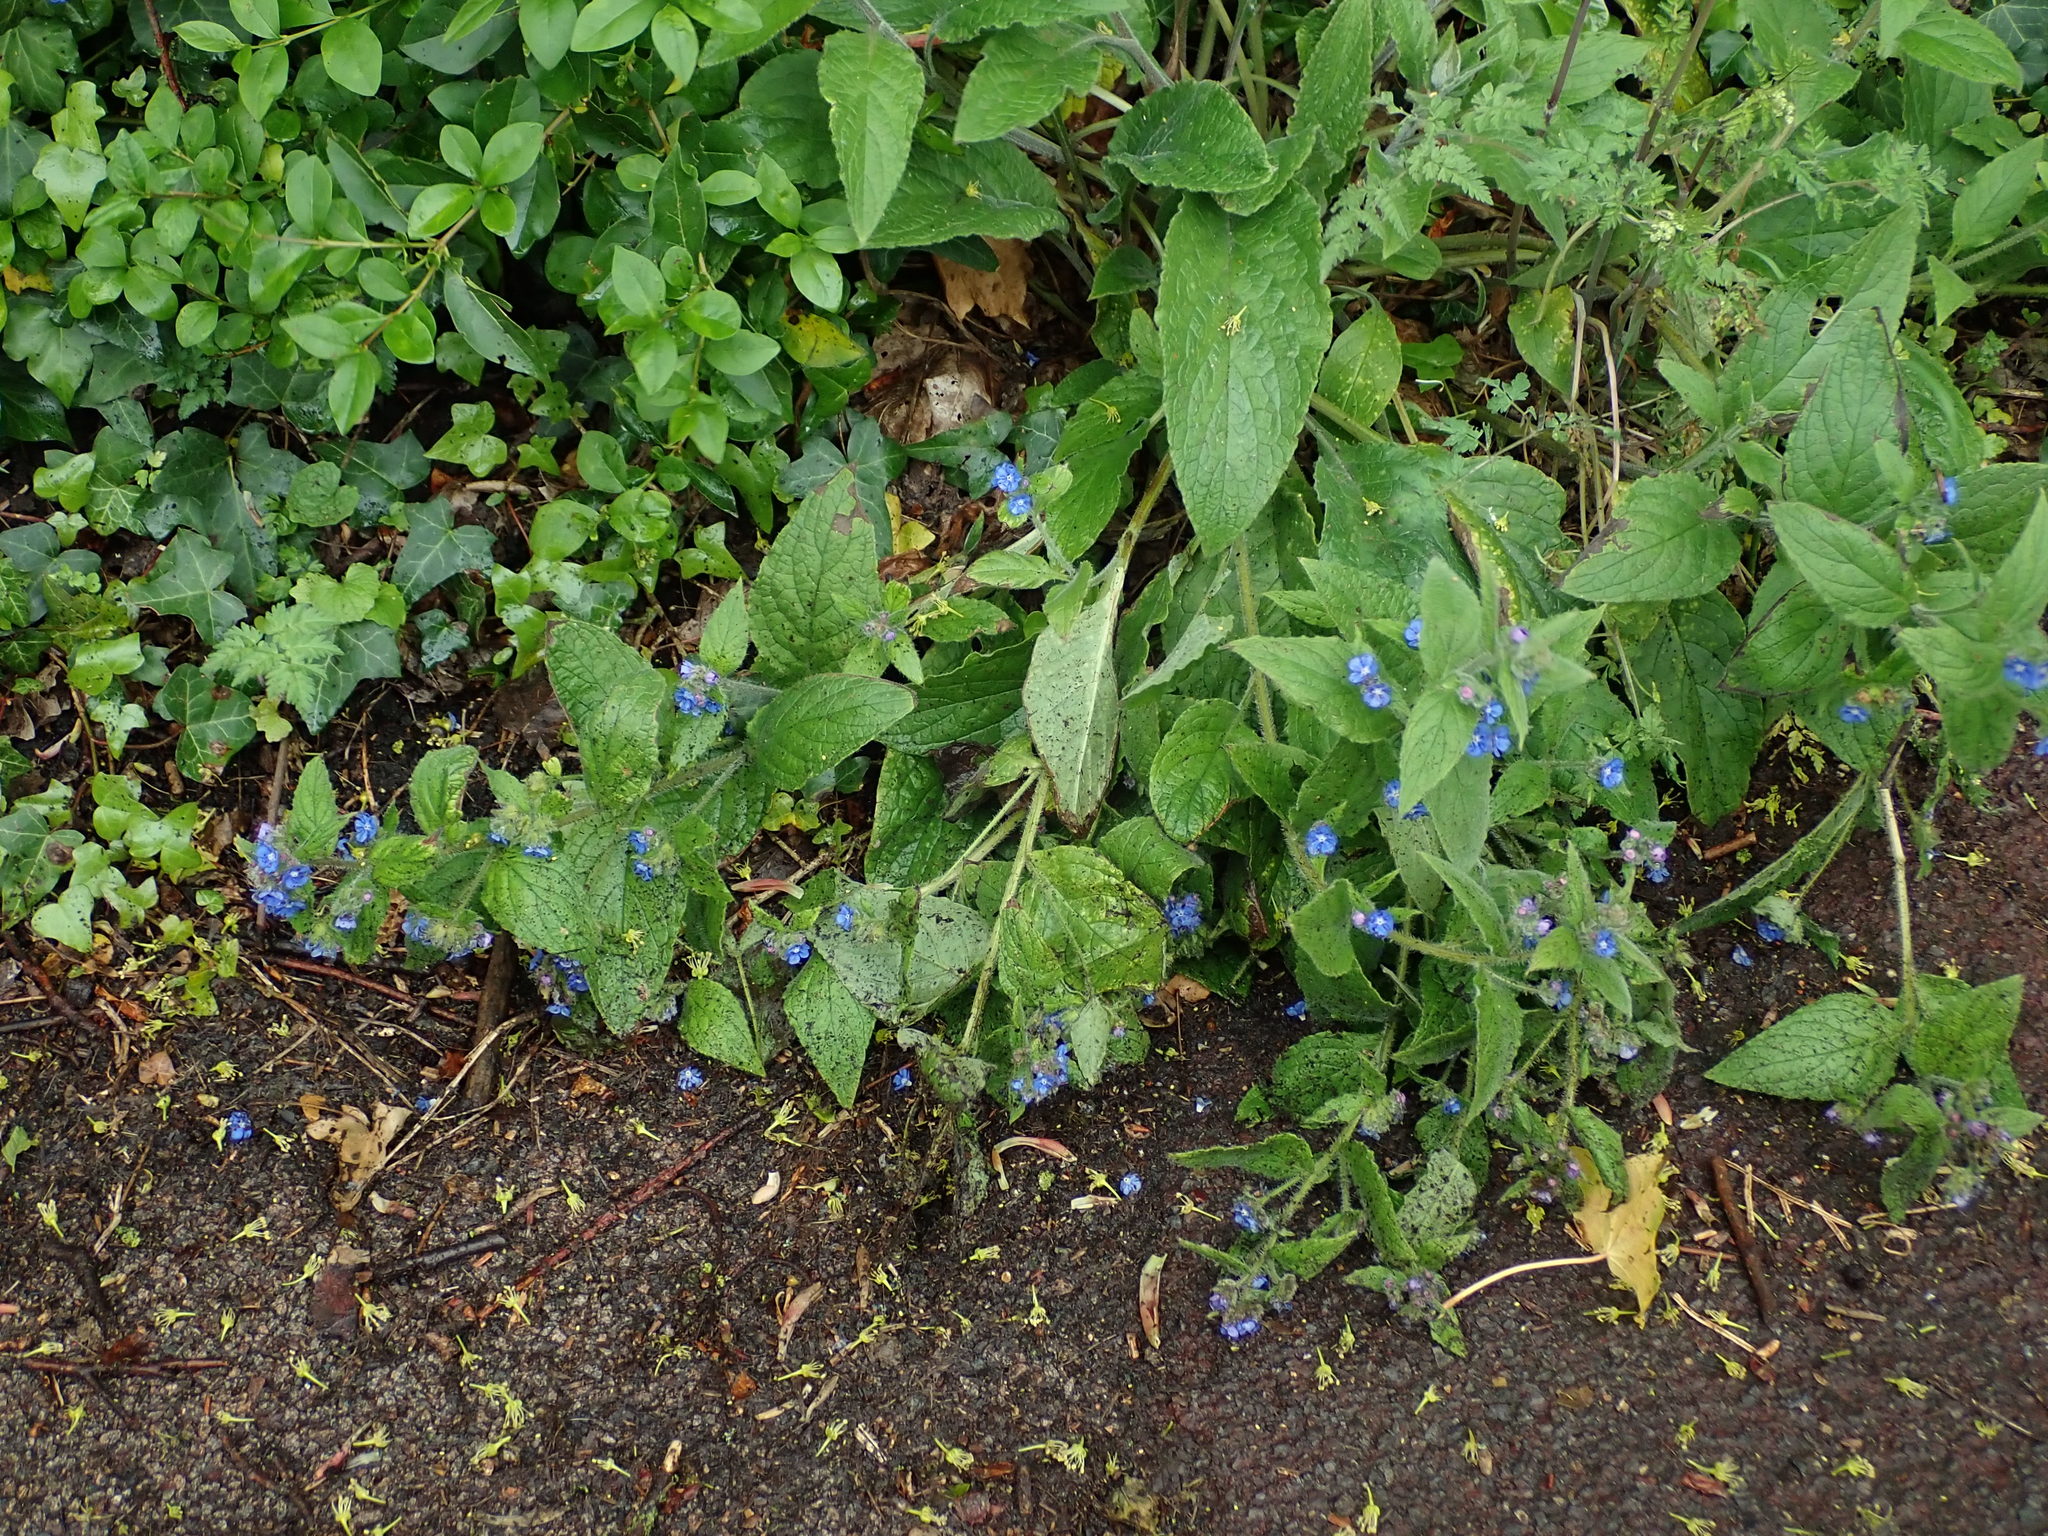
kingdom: Plantae
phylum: Tracheophyta
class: Magnoliopsida
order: Boraginales
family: Boraginaceae
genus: Pentaglottis
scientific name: Pentaglottis sempervirens
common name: Green alkanet
